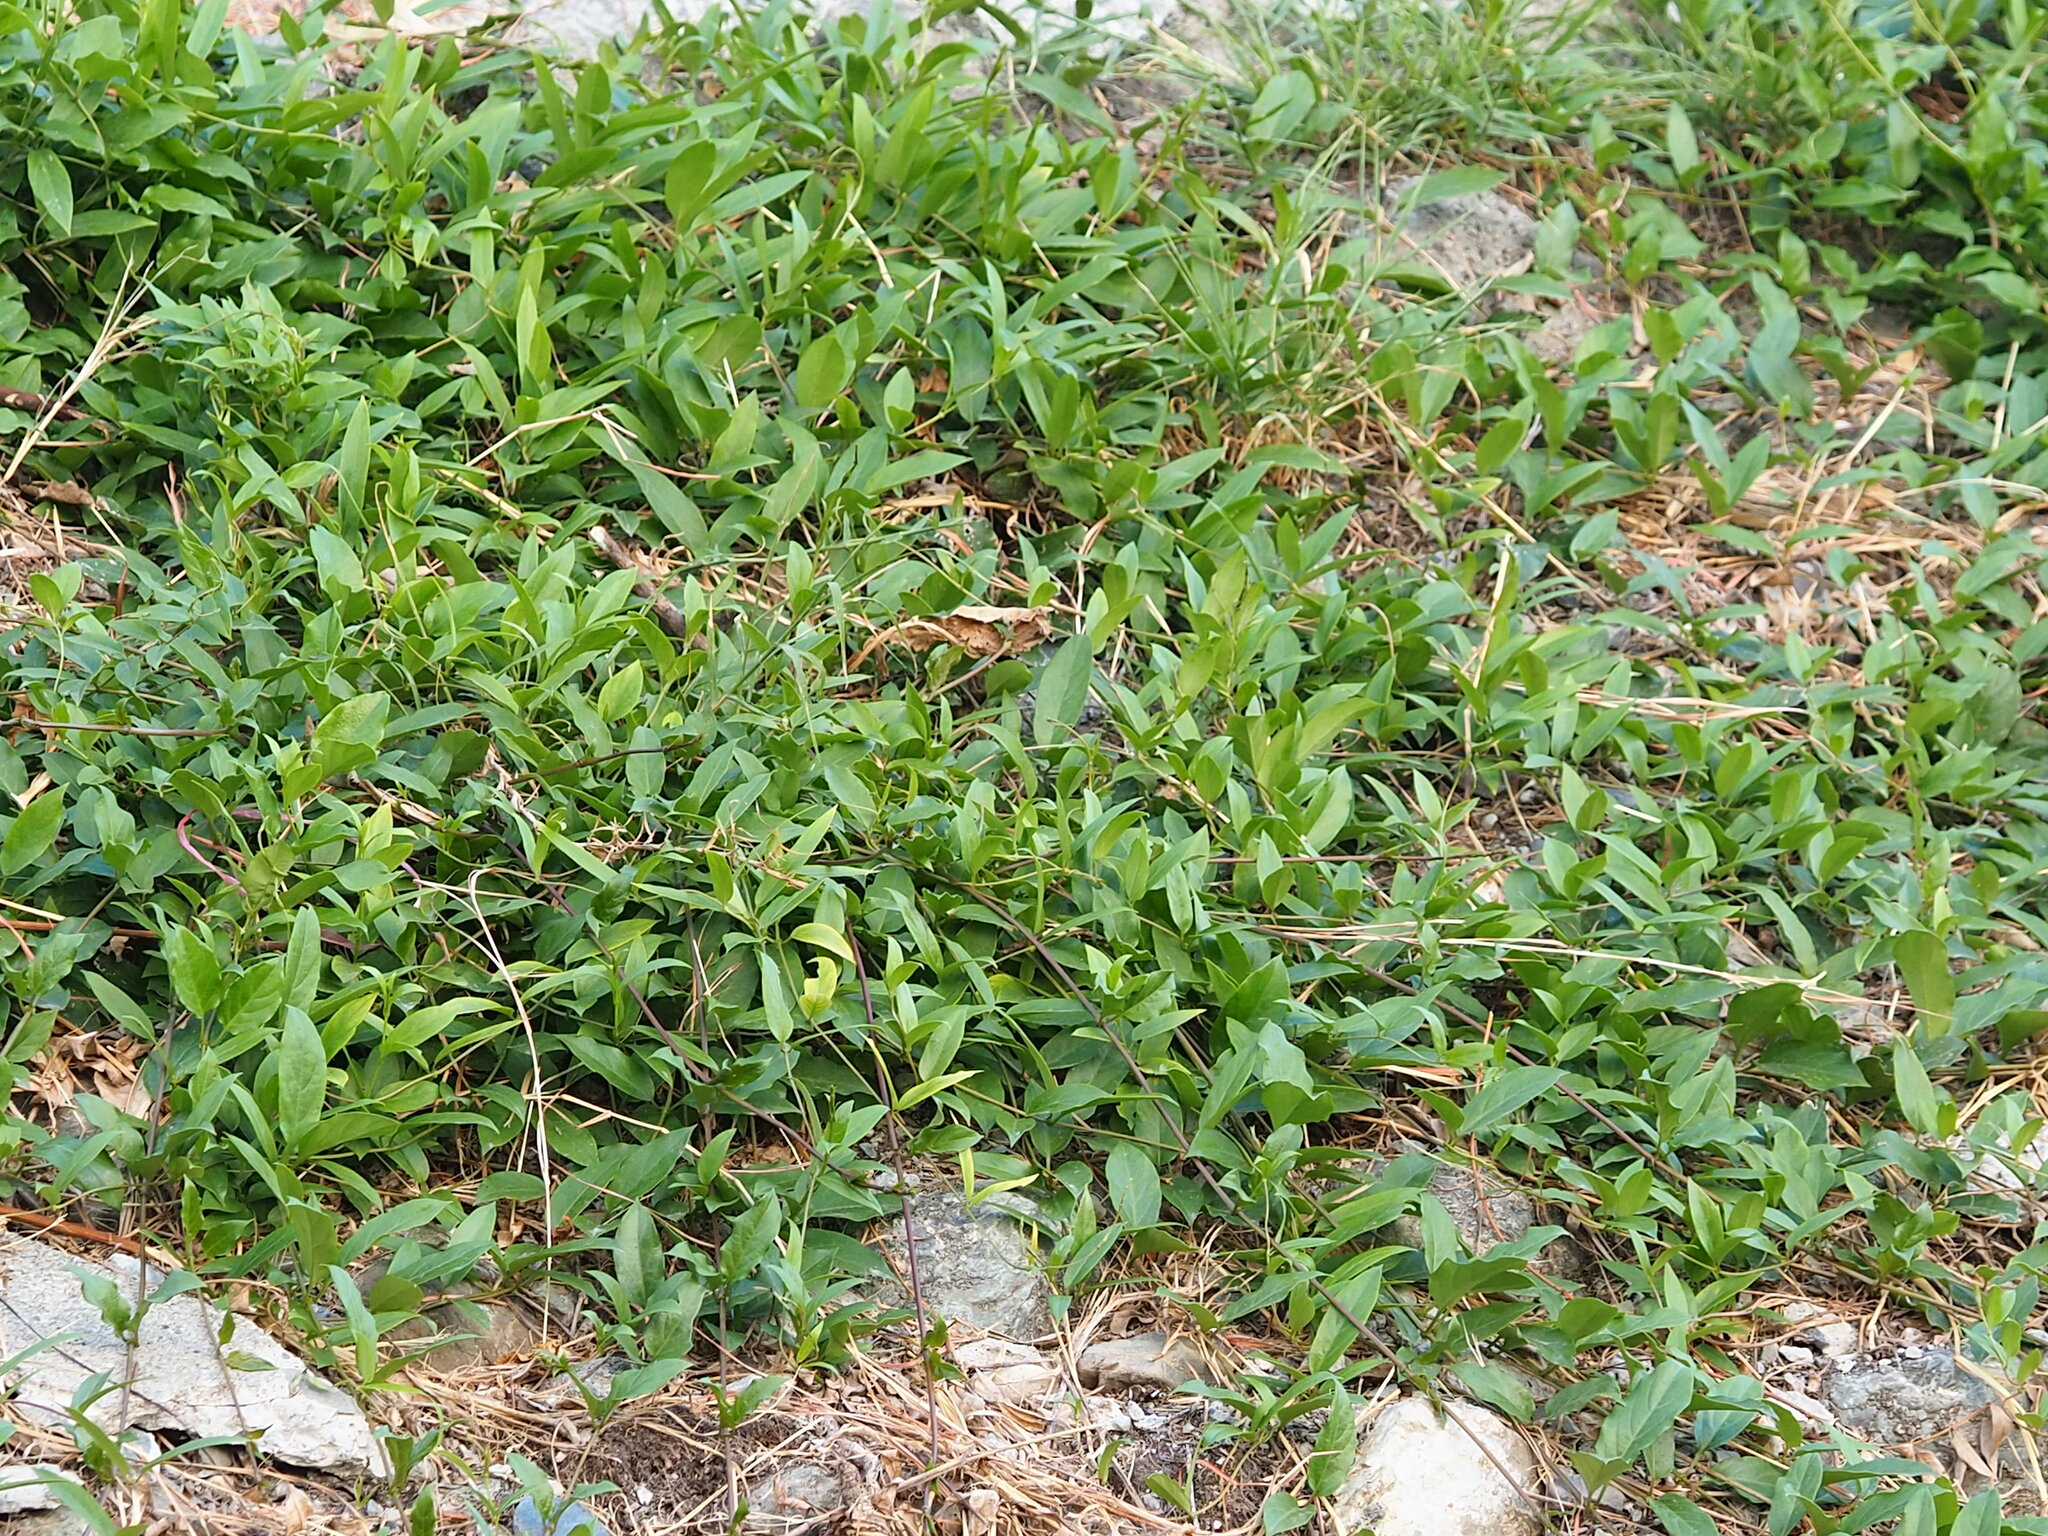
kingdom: Plantae
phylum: Tracheophyta
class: Magnoliopsida
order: Gentianales
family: Rubiaceae
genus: Paederia
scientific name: Paederia foetida
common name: Stinkvine
